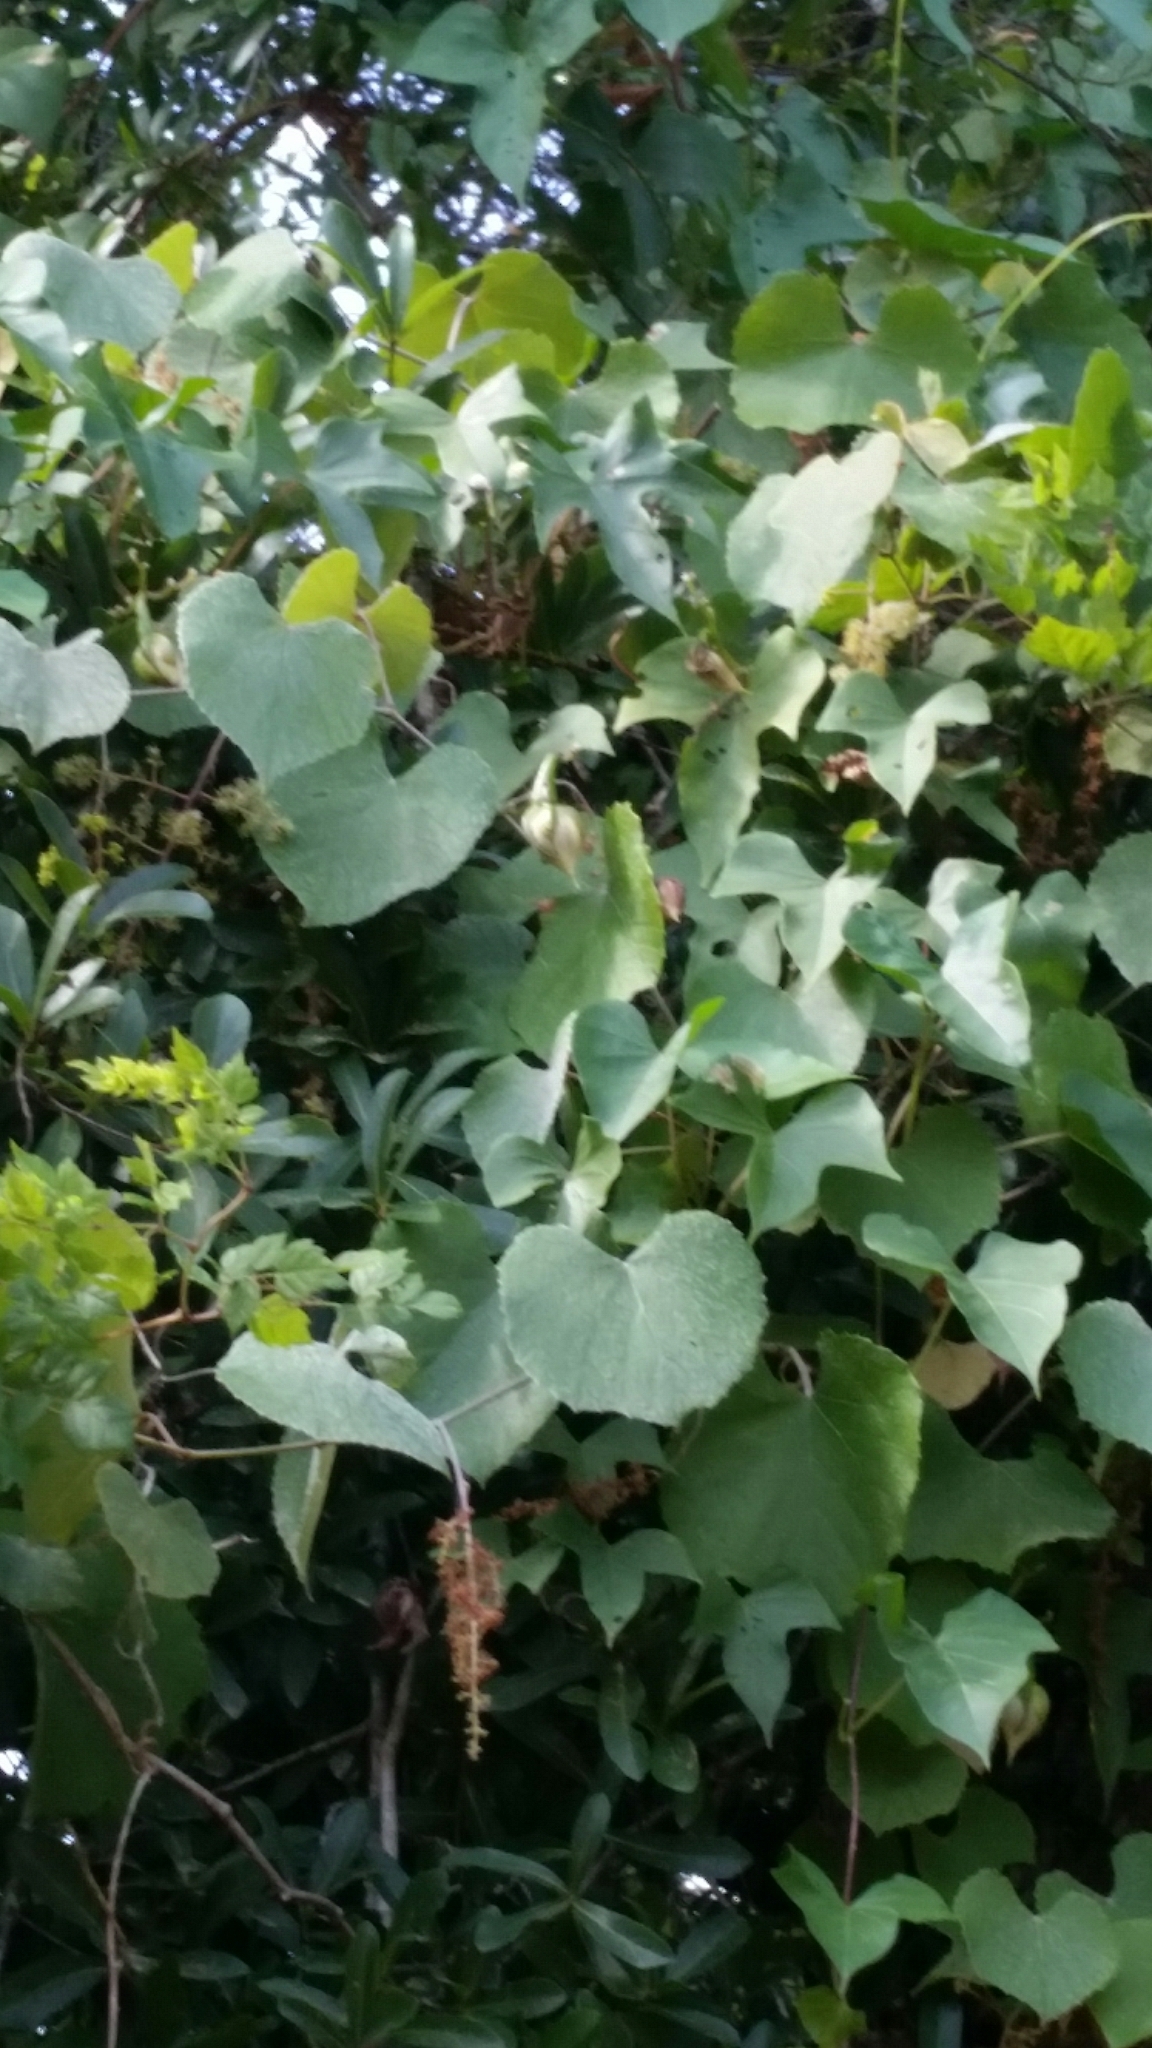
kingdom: Plantae
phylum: Tracheophyta
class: Magnoliopsida
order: Vitales
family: Vitaceae
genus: Vitis
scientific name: Vitis cinerea
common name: Ashy grape
